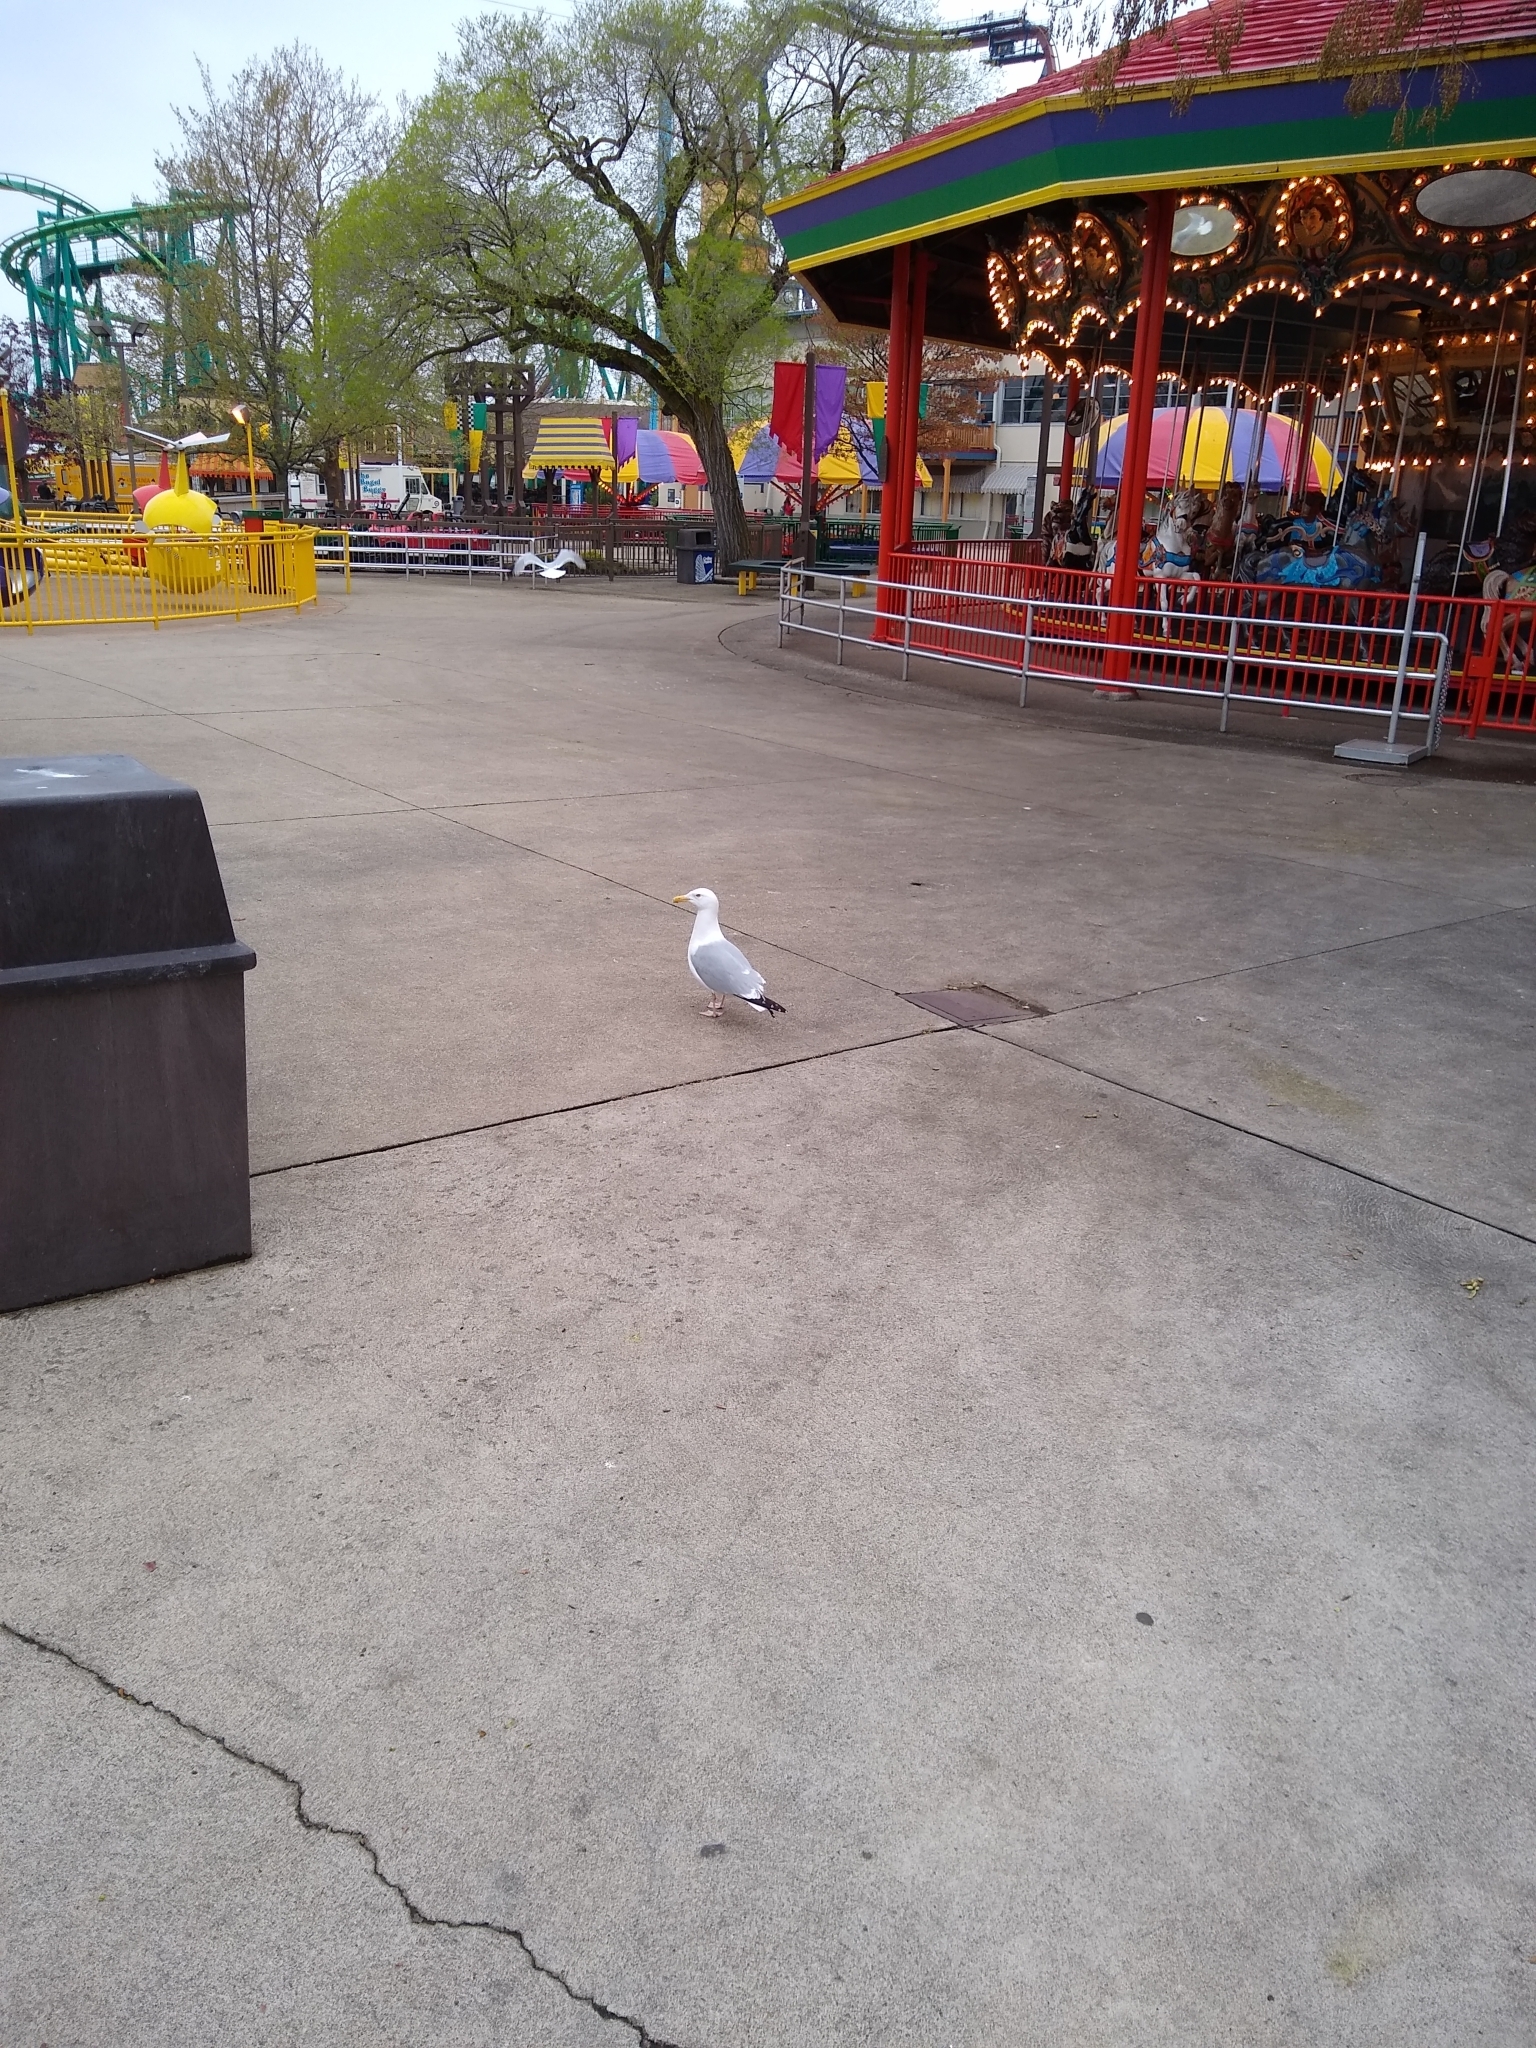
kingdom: Animalia
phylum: Chordata
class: Aves
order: Charadriiformes
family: Laridae
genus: Larus
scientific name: Larus argentatus
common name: Herring gull
